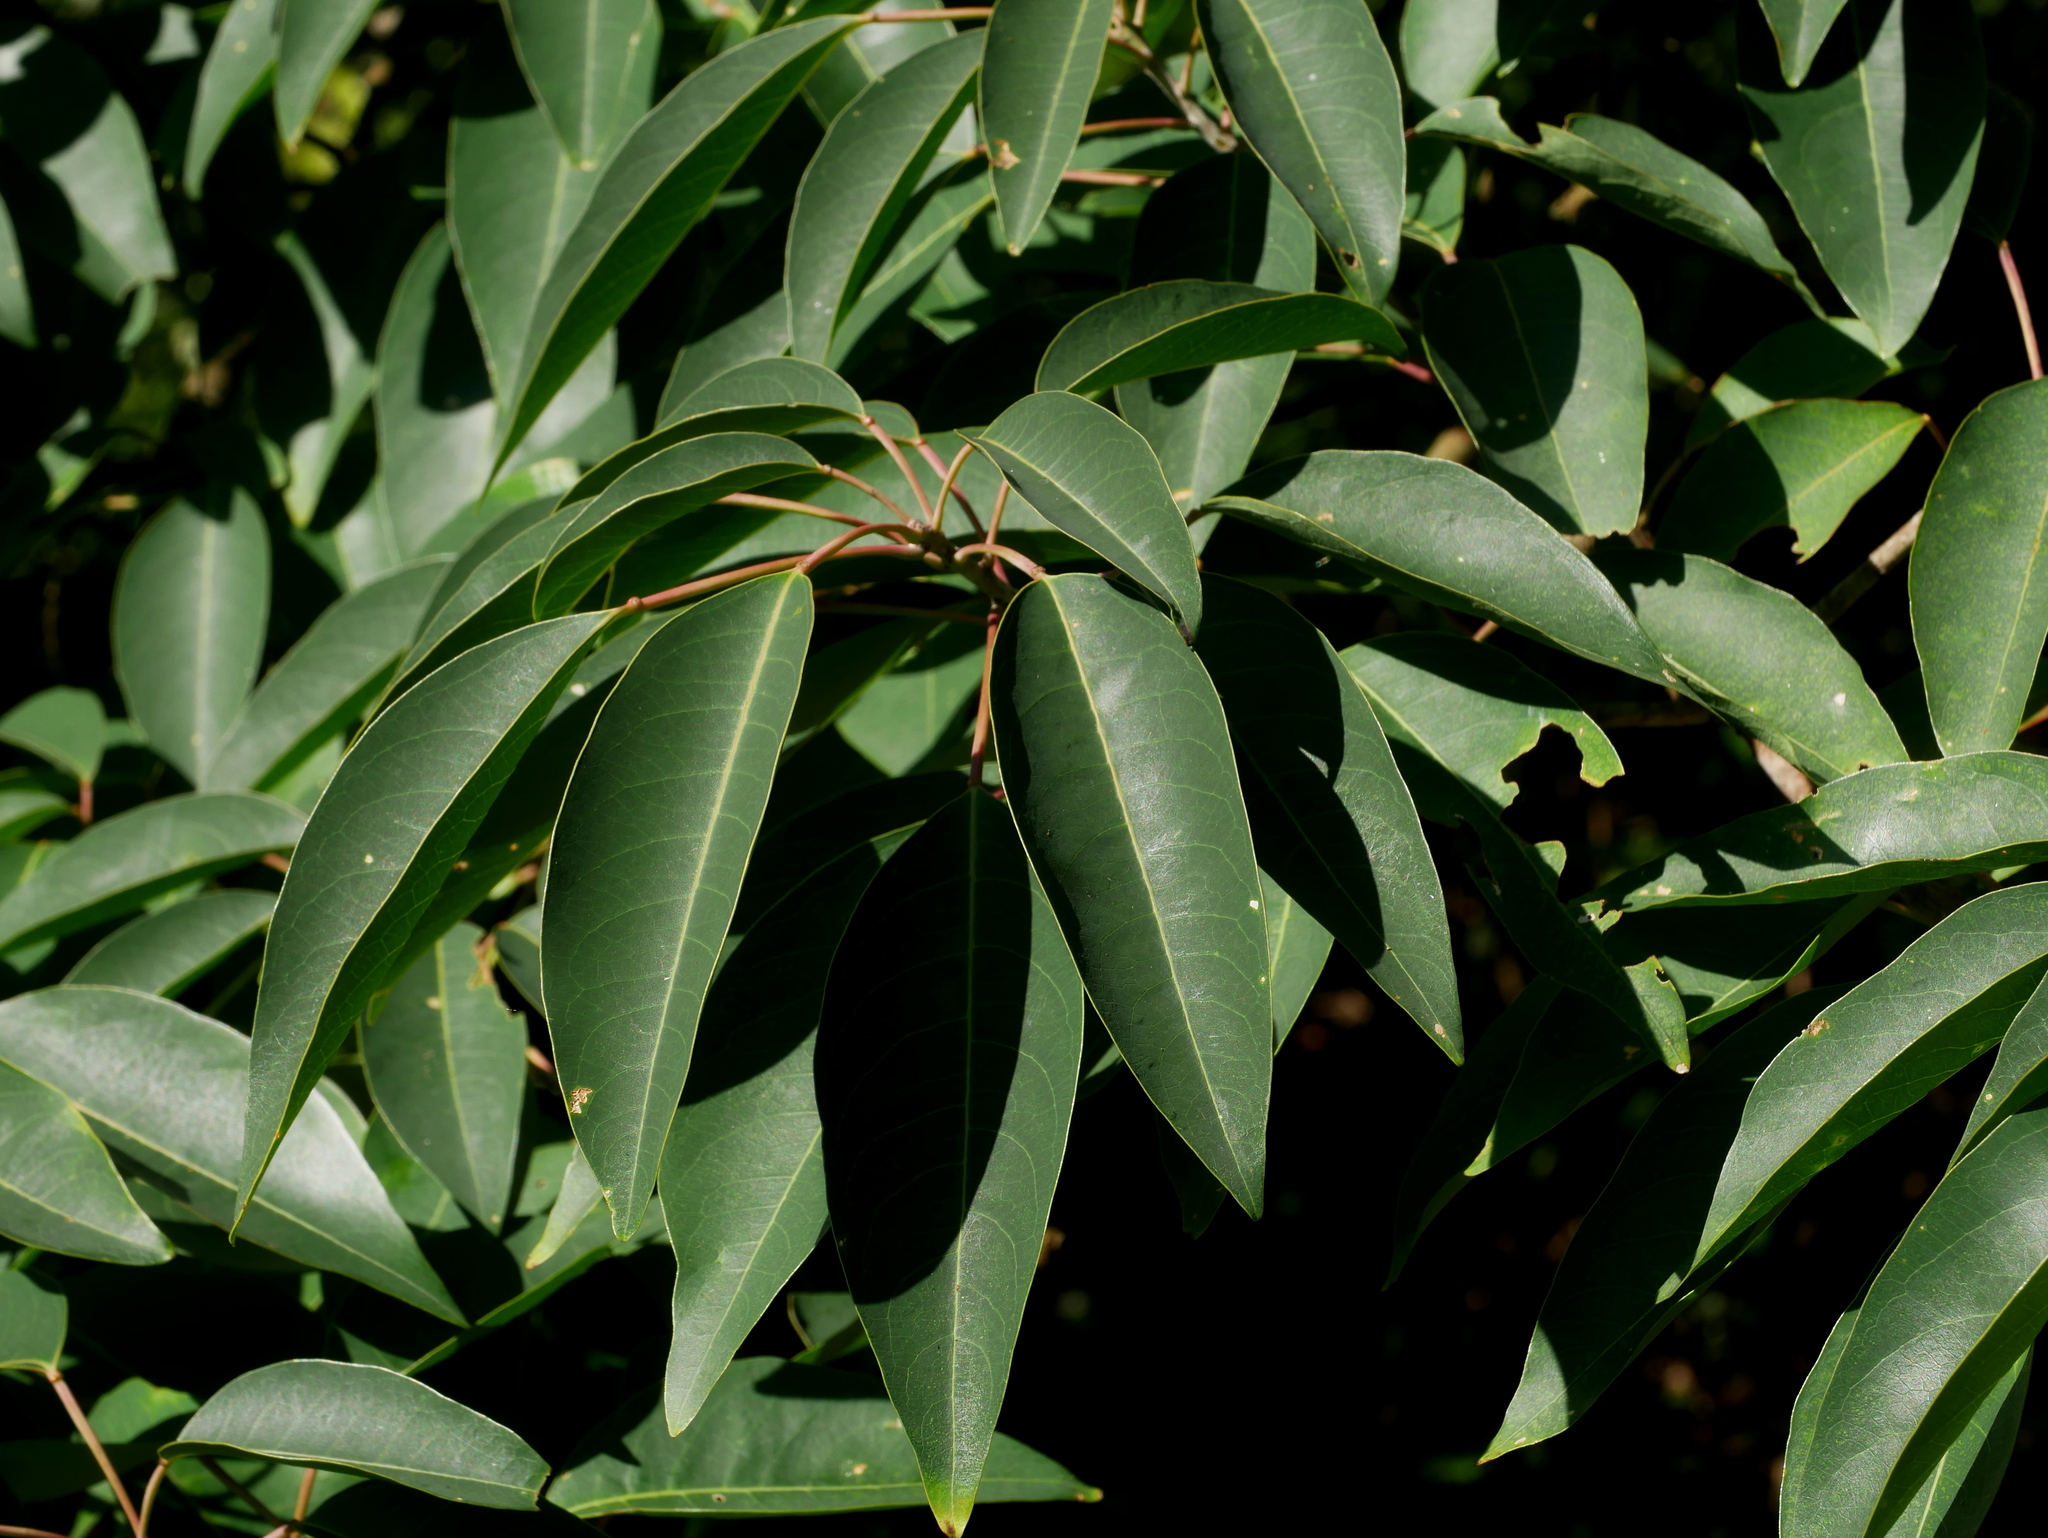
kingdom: Plantae
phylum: Tracheophyta
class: Magnoliopsida
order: Malpighiales
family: Euphorbiaceae
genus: Triadica
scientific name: Triadica cochinchinensis
